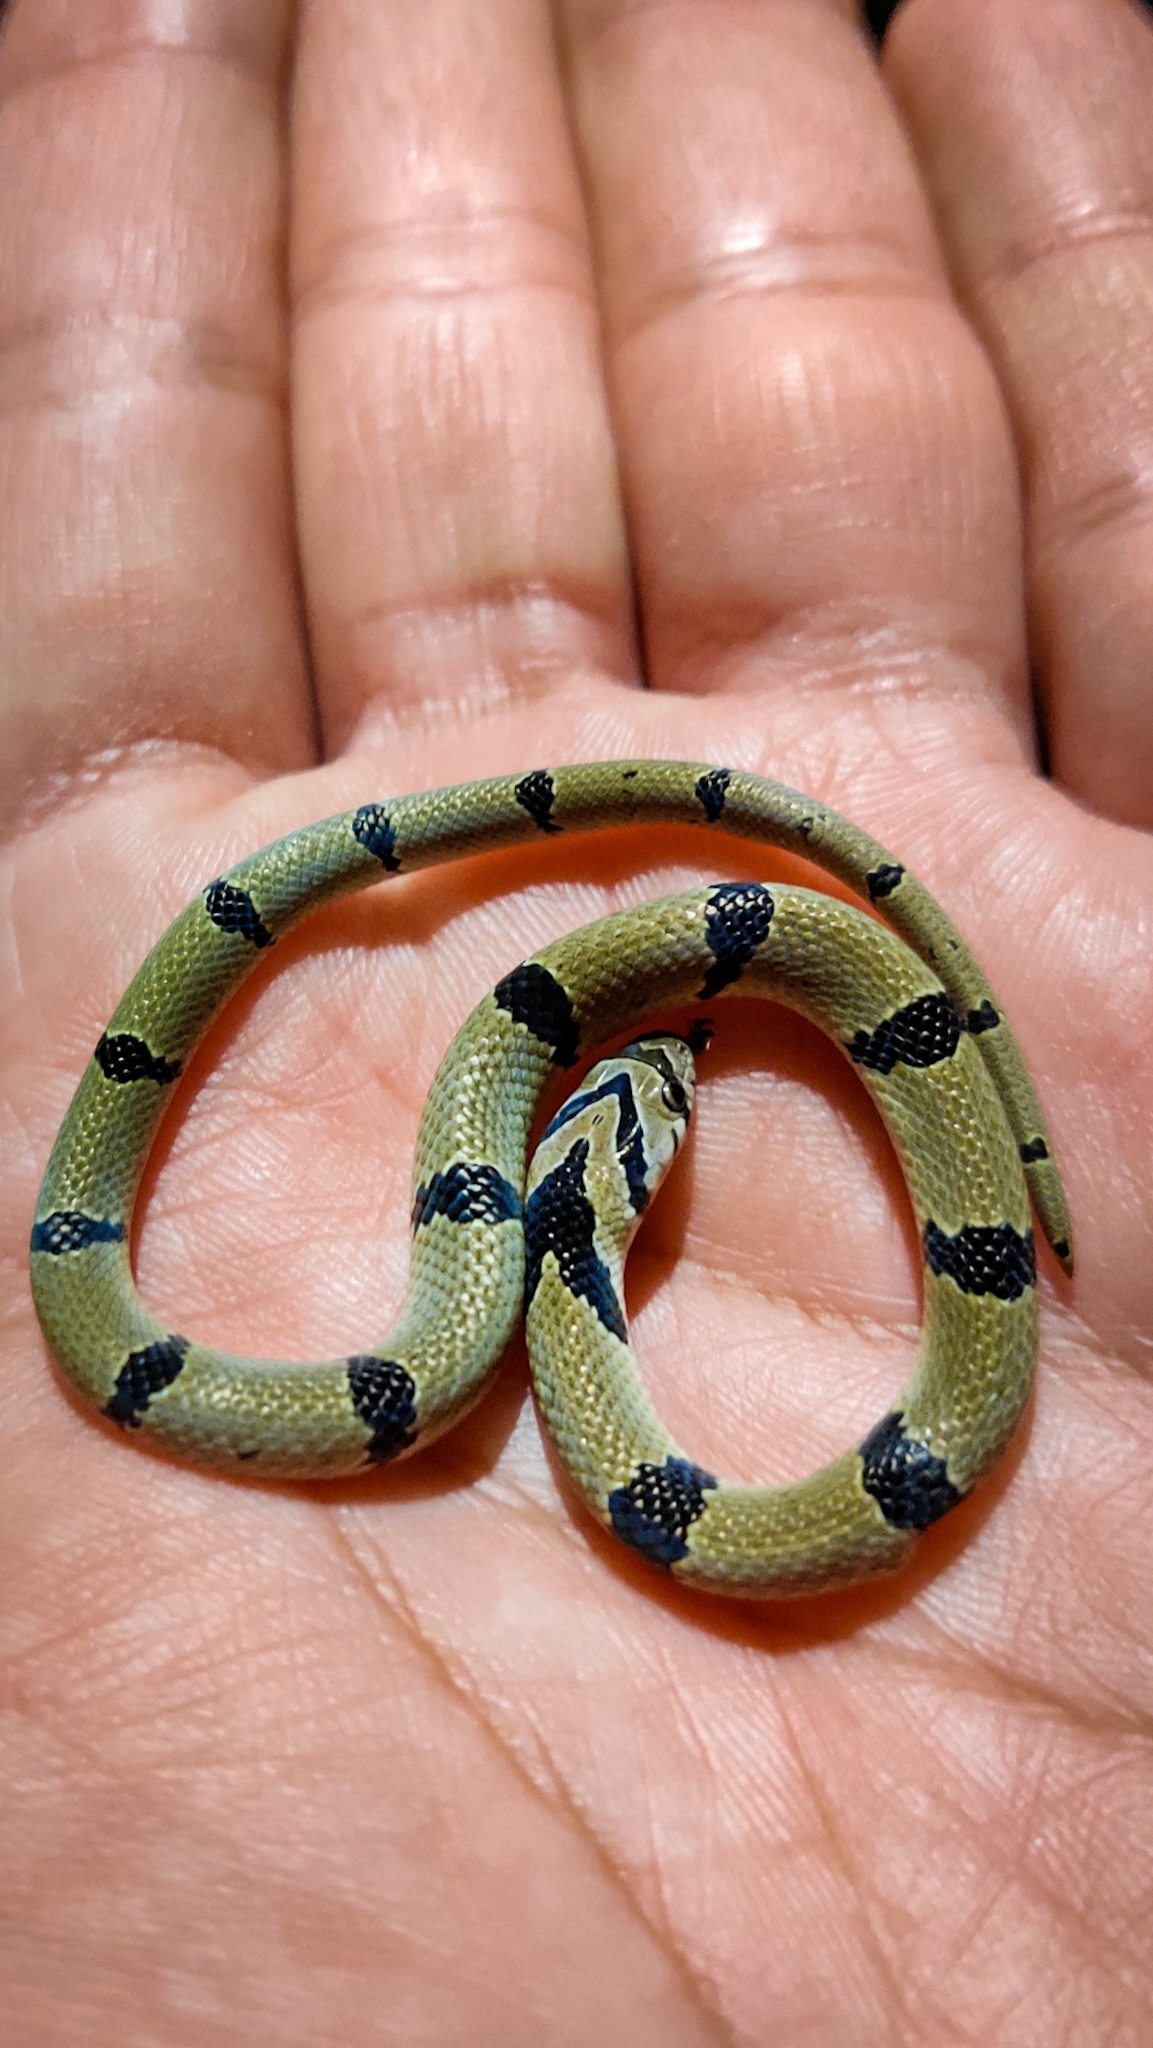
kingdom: Animalia
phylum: Chordata
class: Squamata
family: Colubridae
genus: Oligodon
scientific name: Oligodon arnensis
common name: Banded kukri
